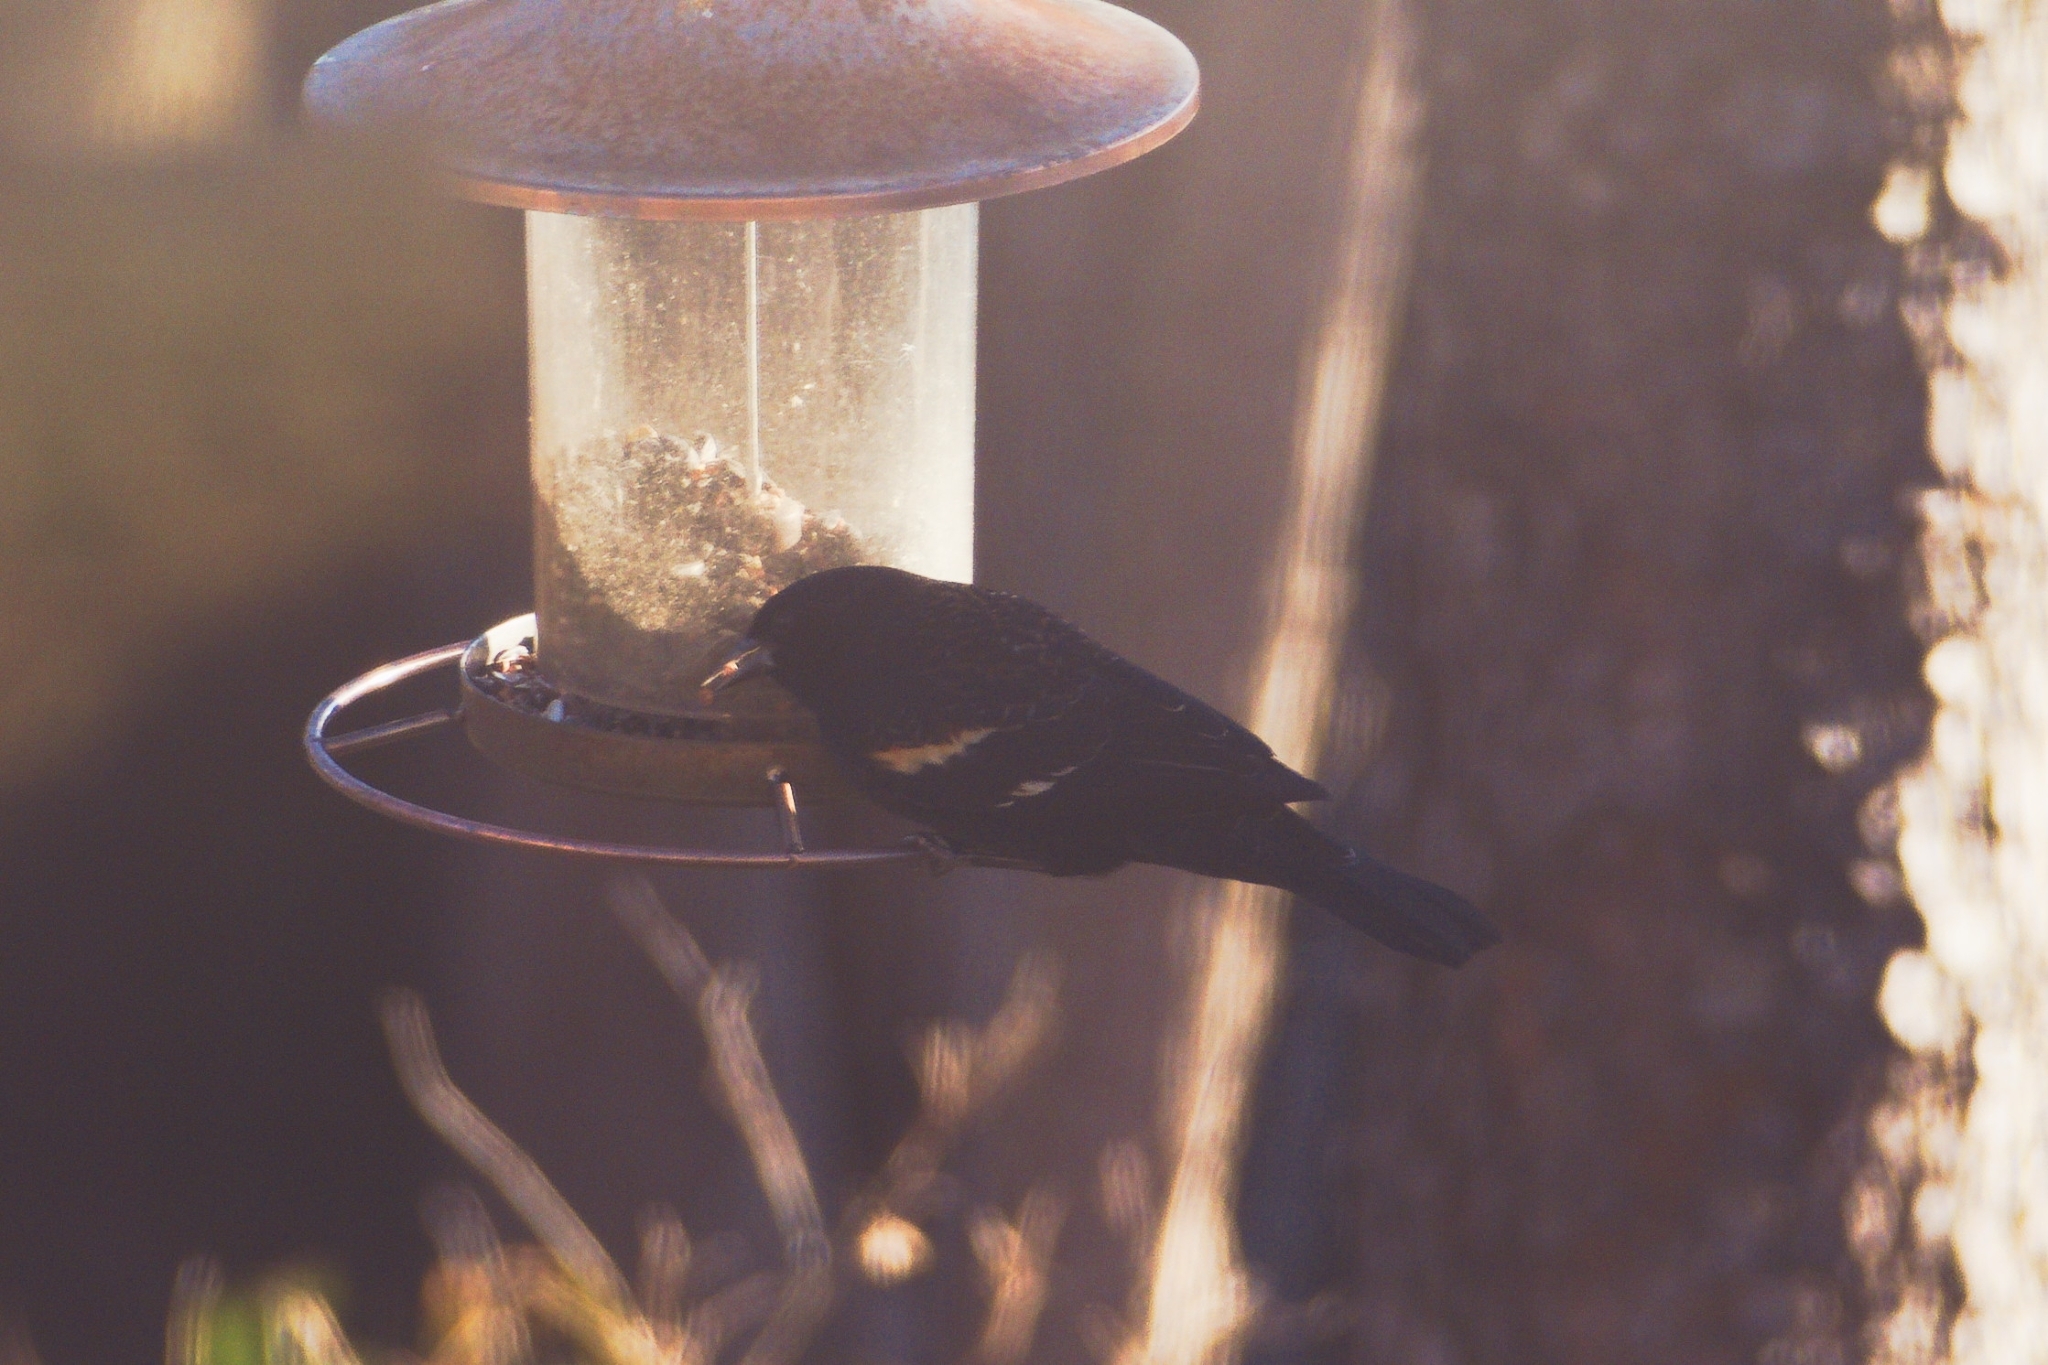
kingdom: Animalia
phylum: Chordata
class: Aves
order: Passeriformes
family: Icteridae
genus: Agelaius
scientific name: Agelaius phoeniceus
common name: Red-winged blackbird
